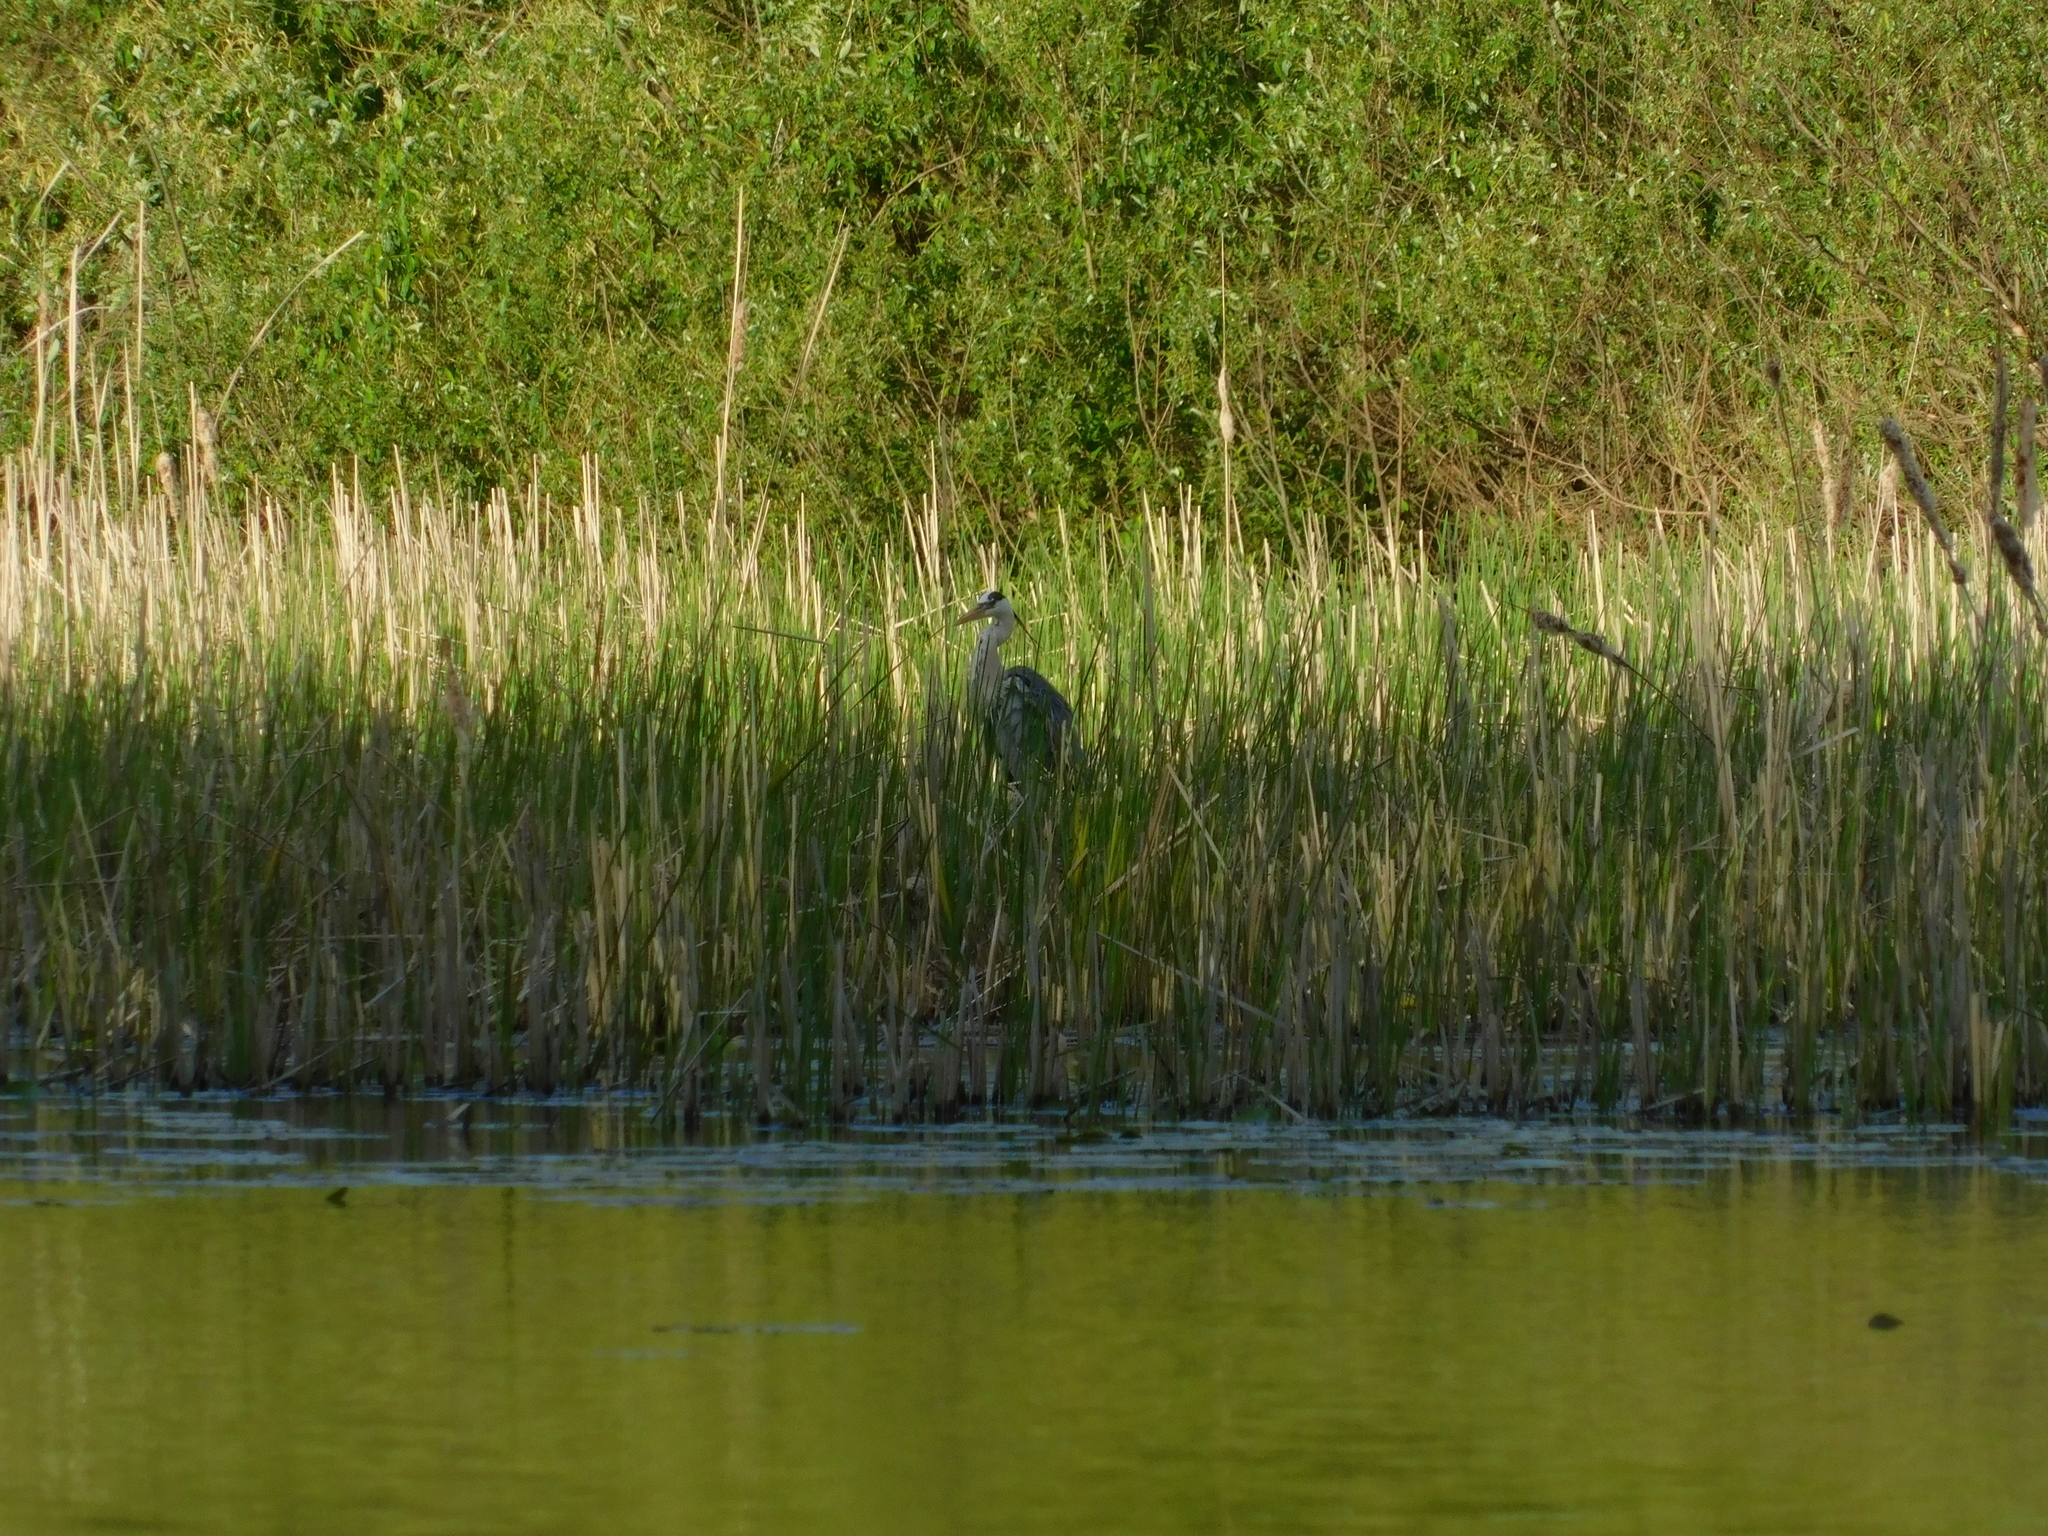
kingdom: Animalia
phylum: Chordata
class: Aves
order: Pelecaniformes
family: Ardeidae
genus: Ardea
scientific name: Ardea cinerea
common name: Grey heron
